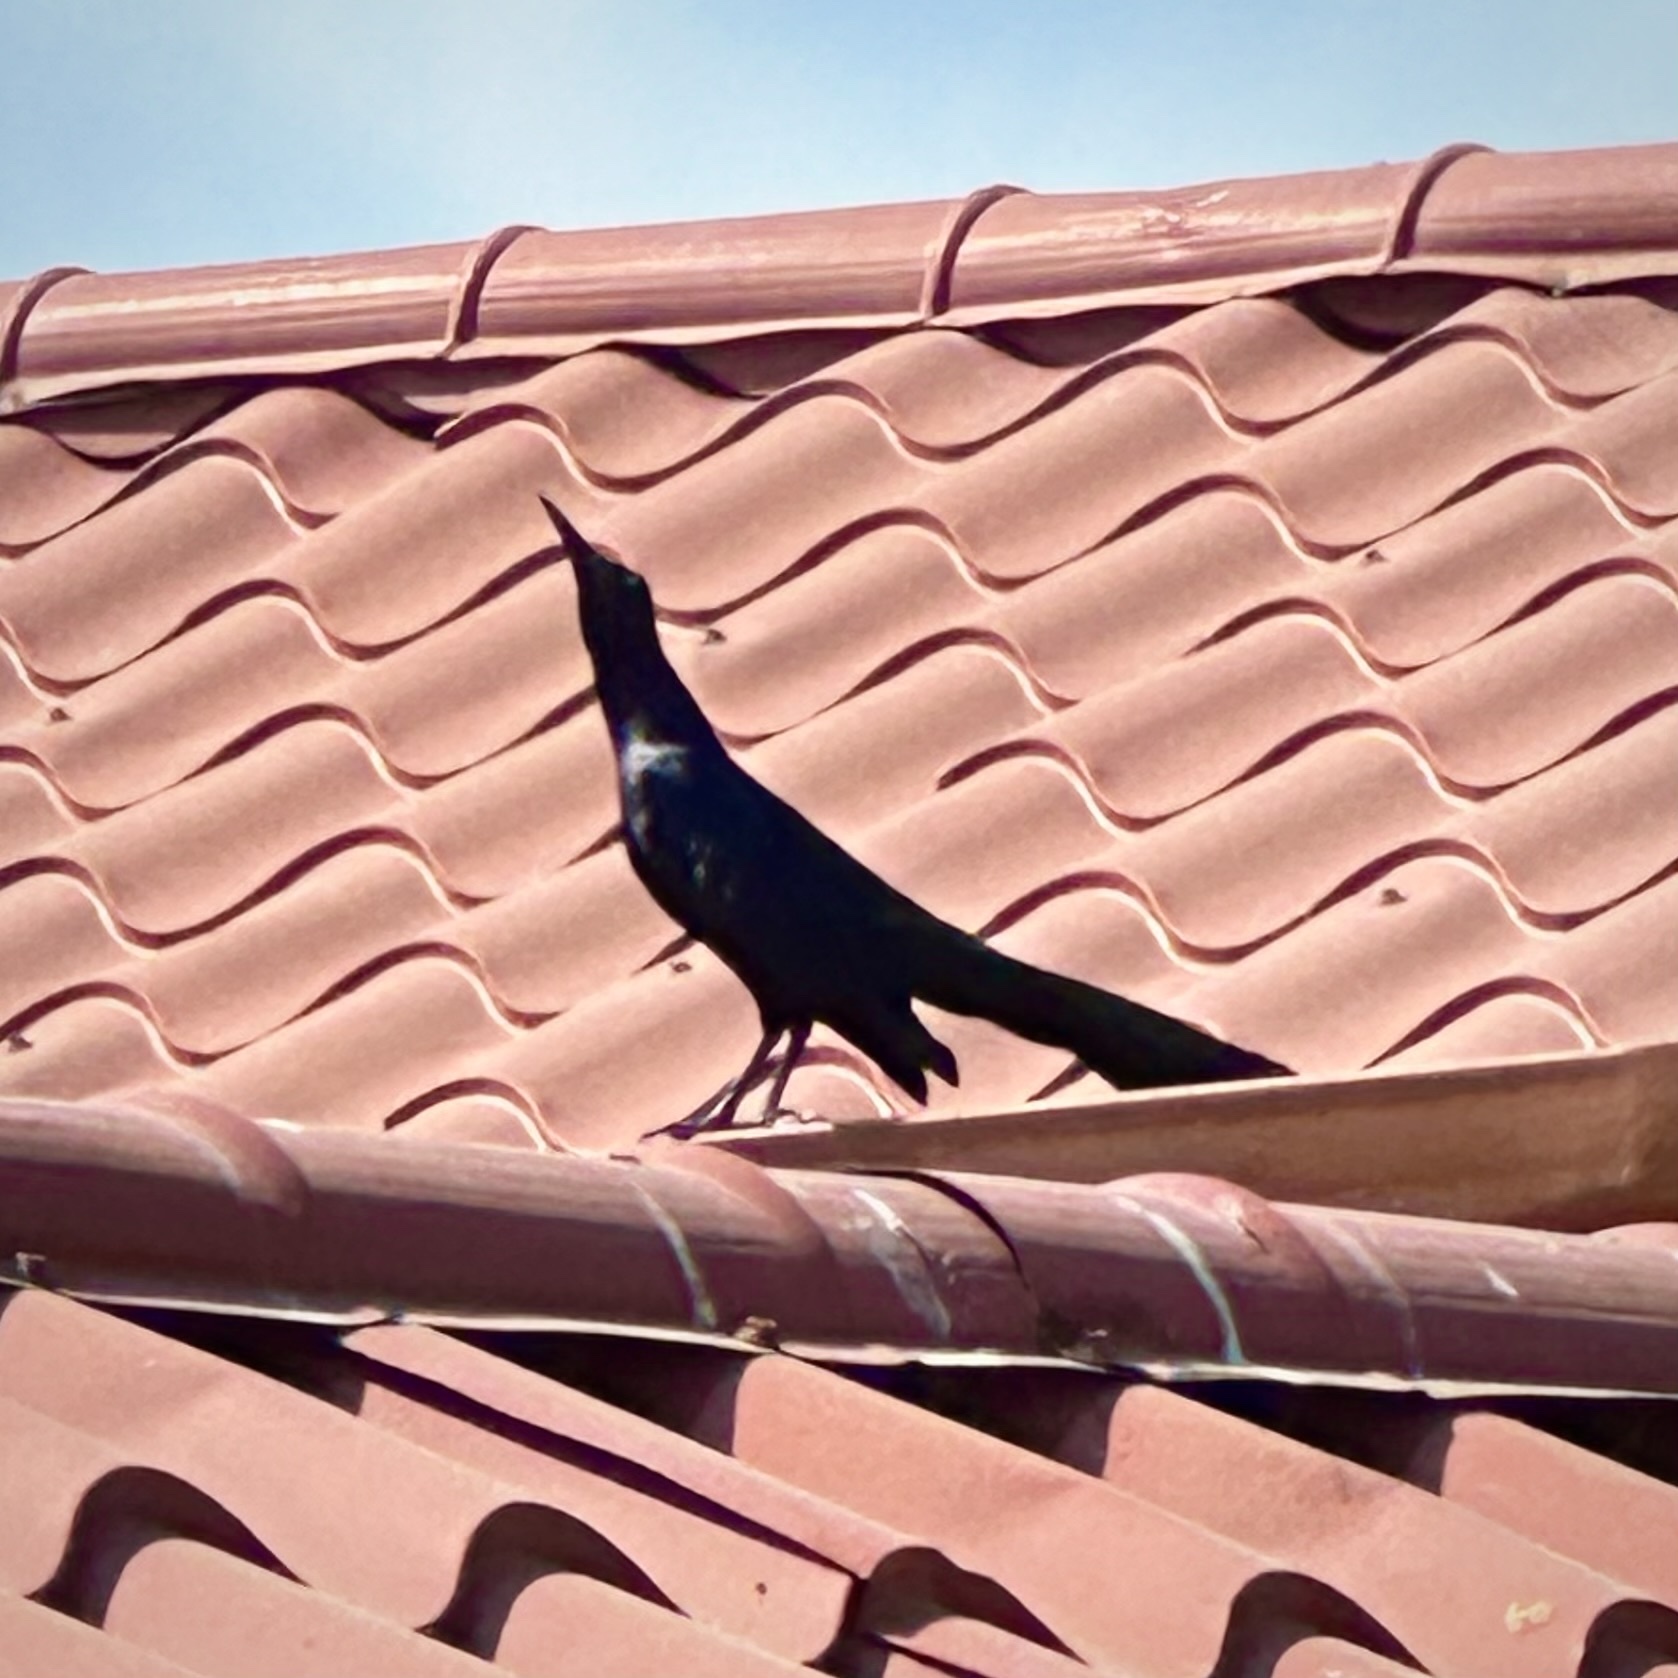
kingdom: Animalia
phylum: Chordata
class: Aves
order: Passeriformes
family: Icteridae
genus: Quiscalus
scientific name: Quiscalus mexicanus
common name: Great-tailed grackle
